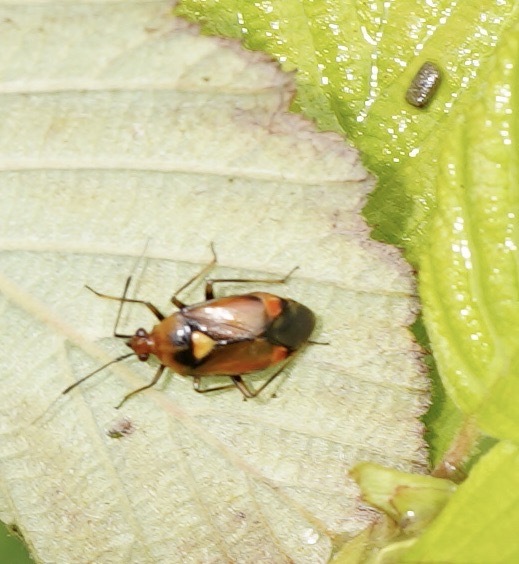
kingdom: Animalia
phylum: Arthropoda
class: Insecta
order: Hemiptera
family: Miridae
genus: Deraeocoris
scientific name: Deraeocoris ruber
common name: Plant bug
